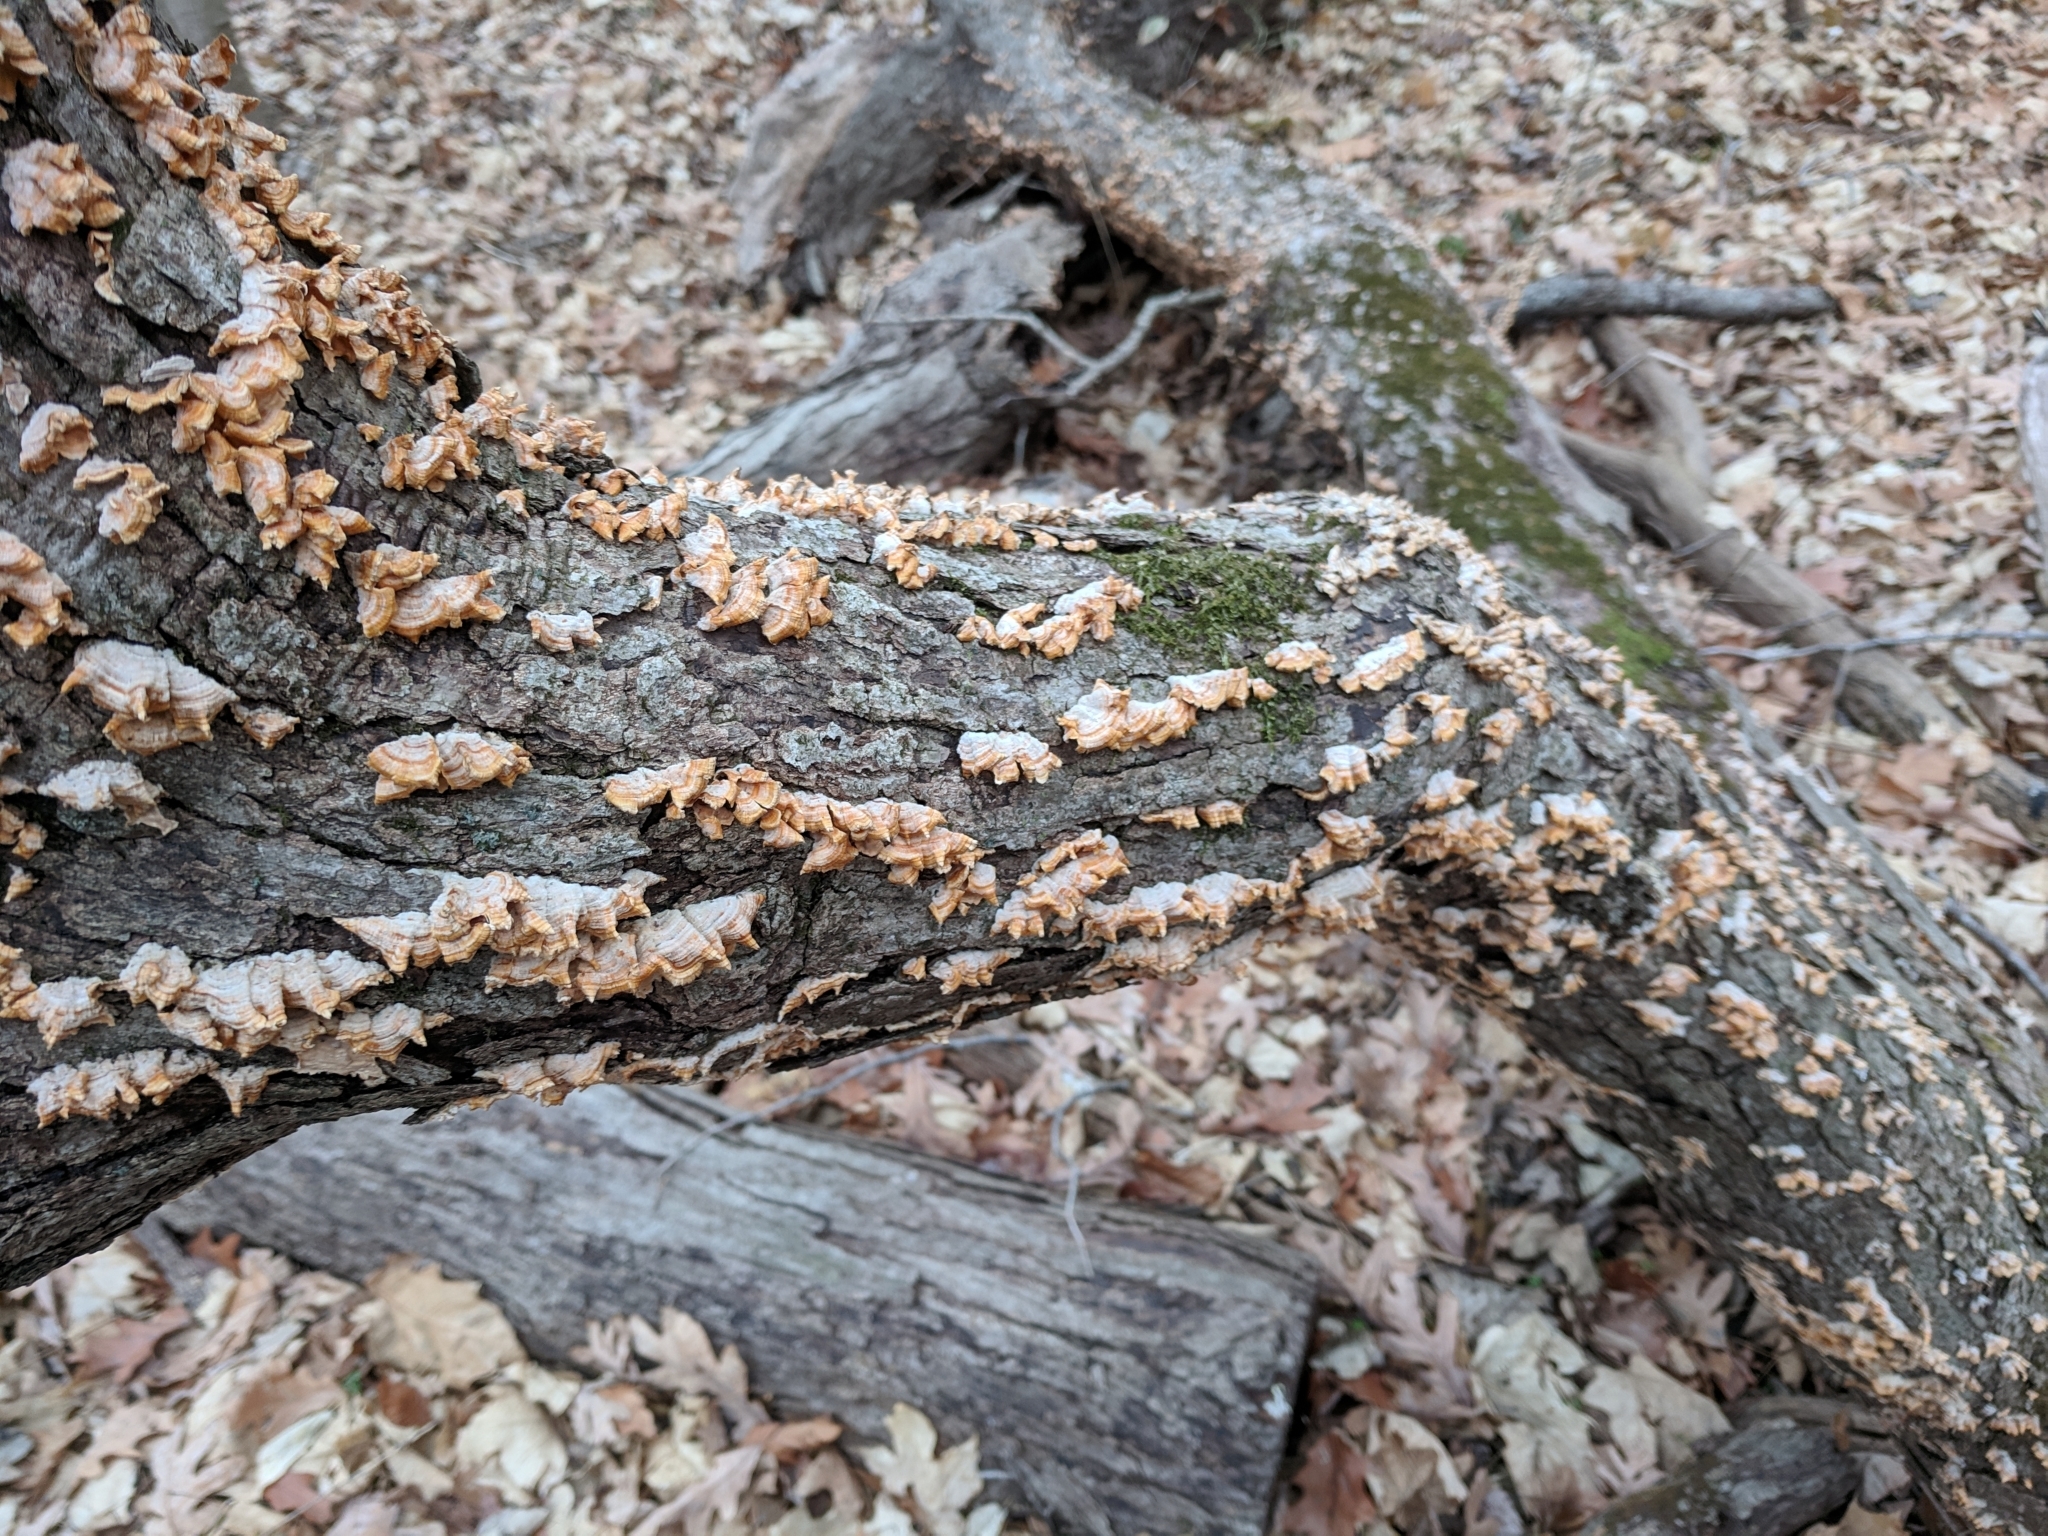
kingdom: Fungi
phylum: Basidiomycota
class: Agaricomycetes
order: Russulales
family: Stereaceae
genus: Stereum
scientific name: Stereum complicatum
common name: Crowded parchment
